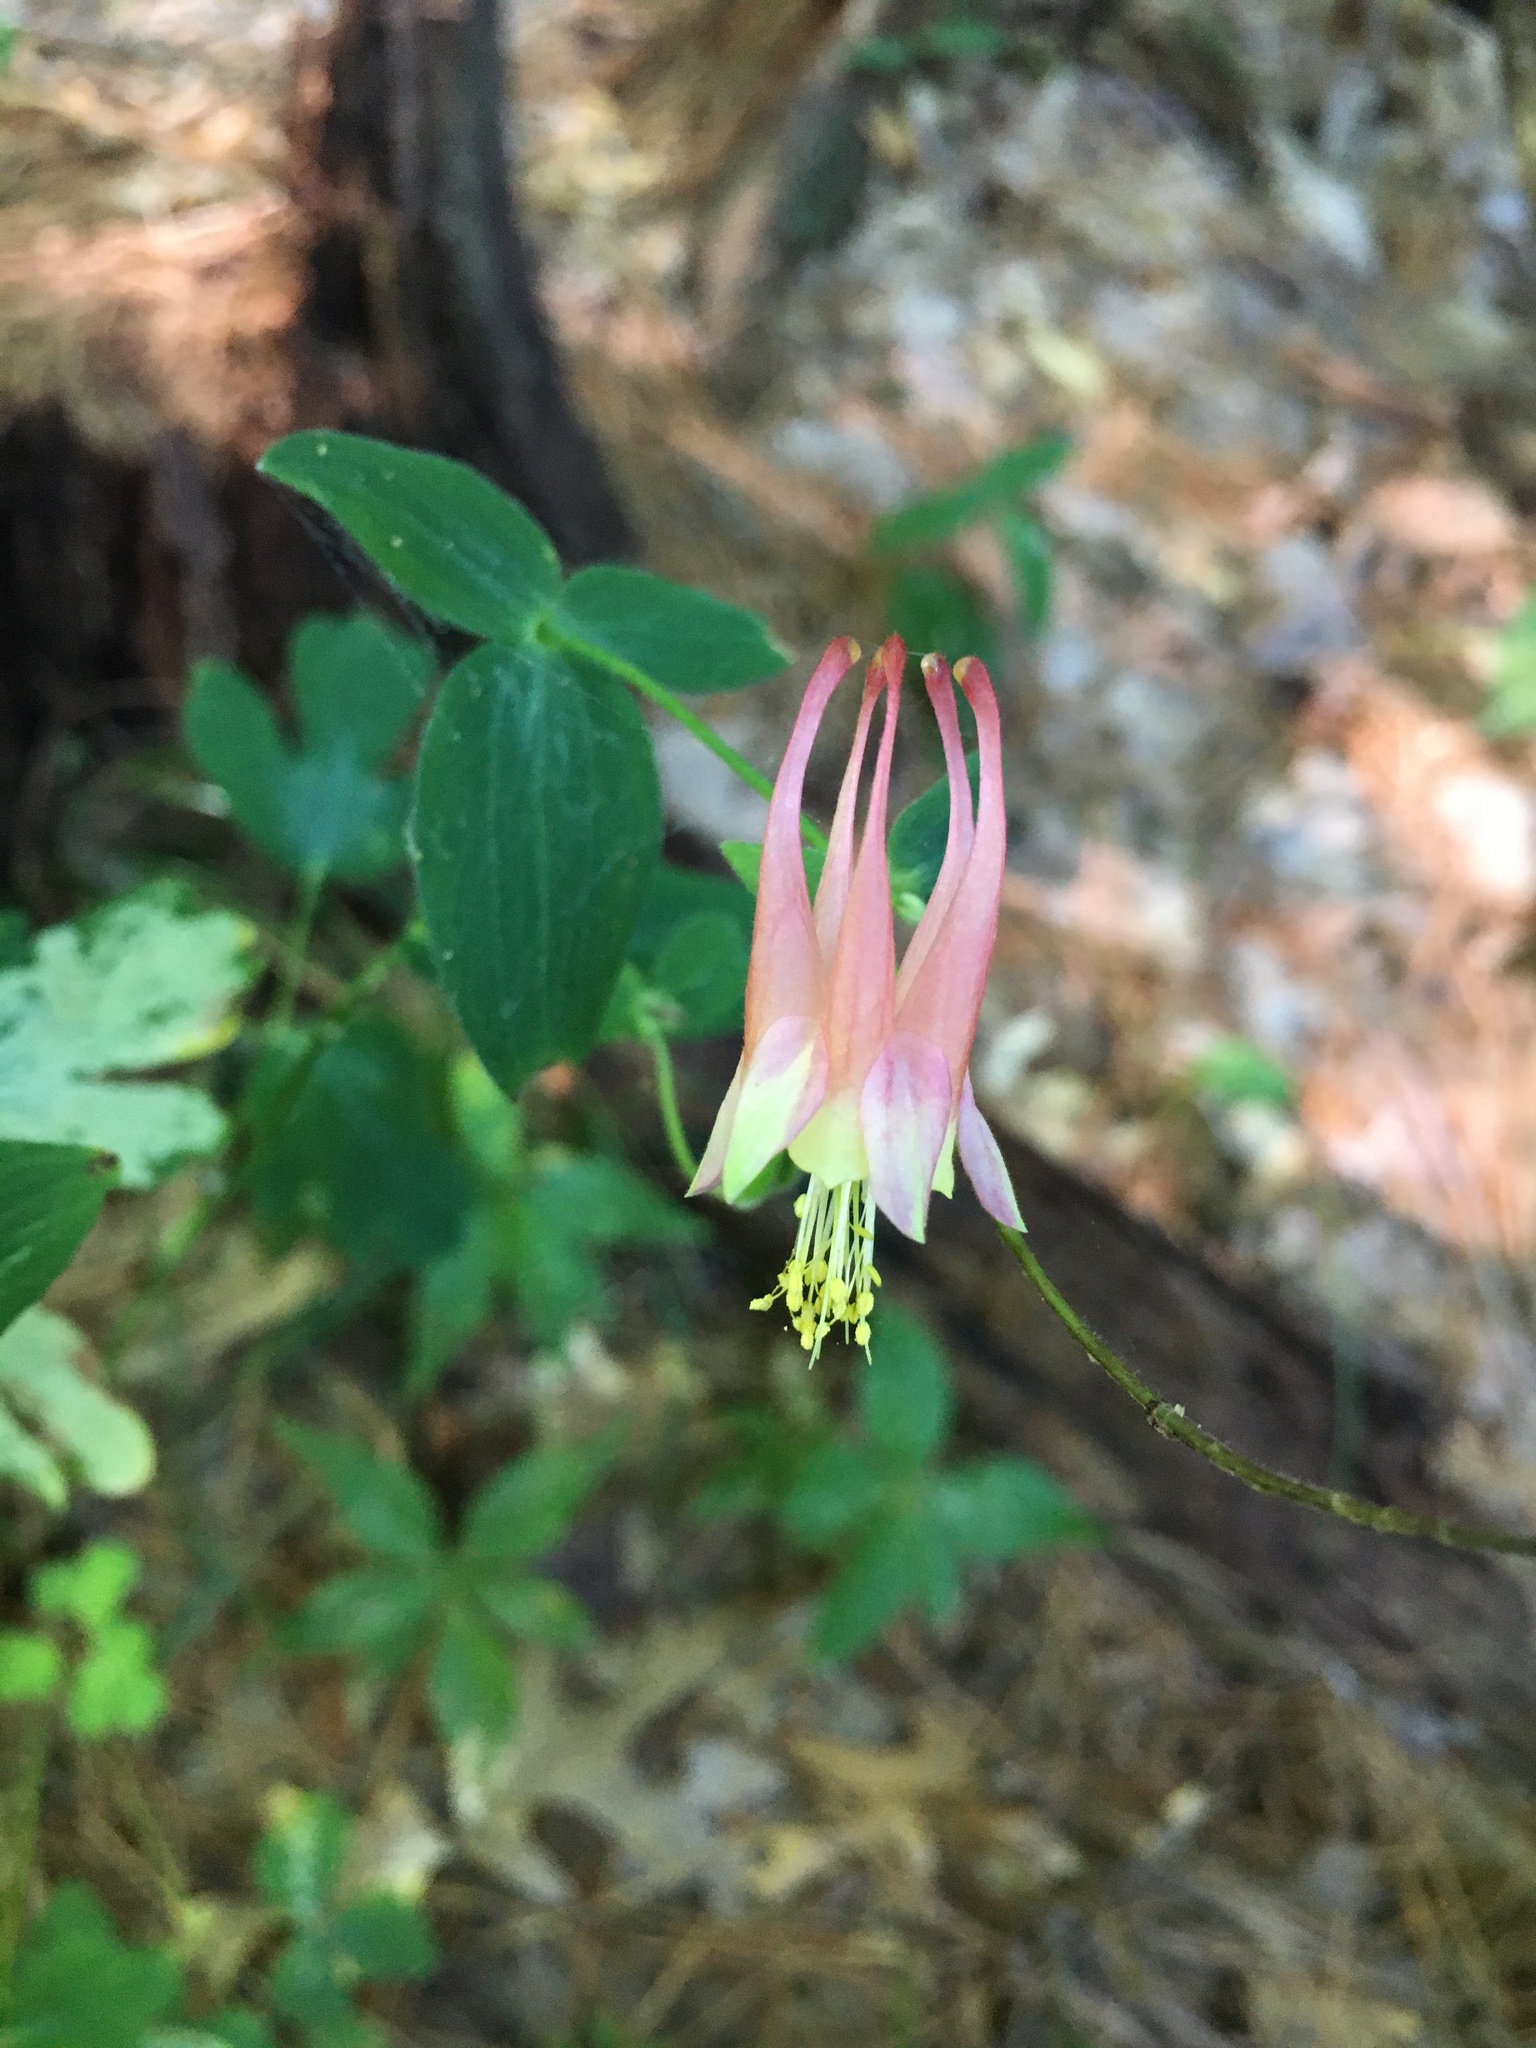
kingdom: Plantae
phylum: Tracheophyta
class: Magnoliopsida
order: Ranunculales
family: Ranunculaceae
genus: Aquilegia
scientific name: Aquilegia canadensis
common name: American columbine
